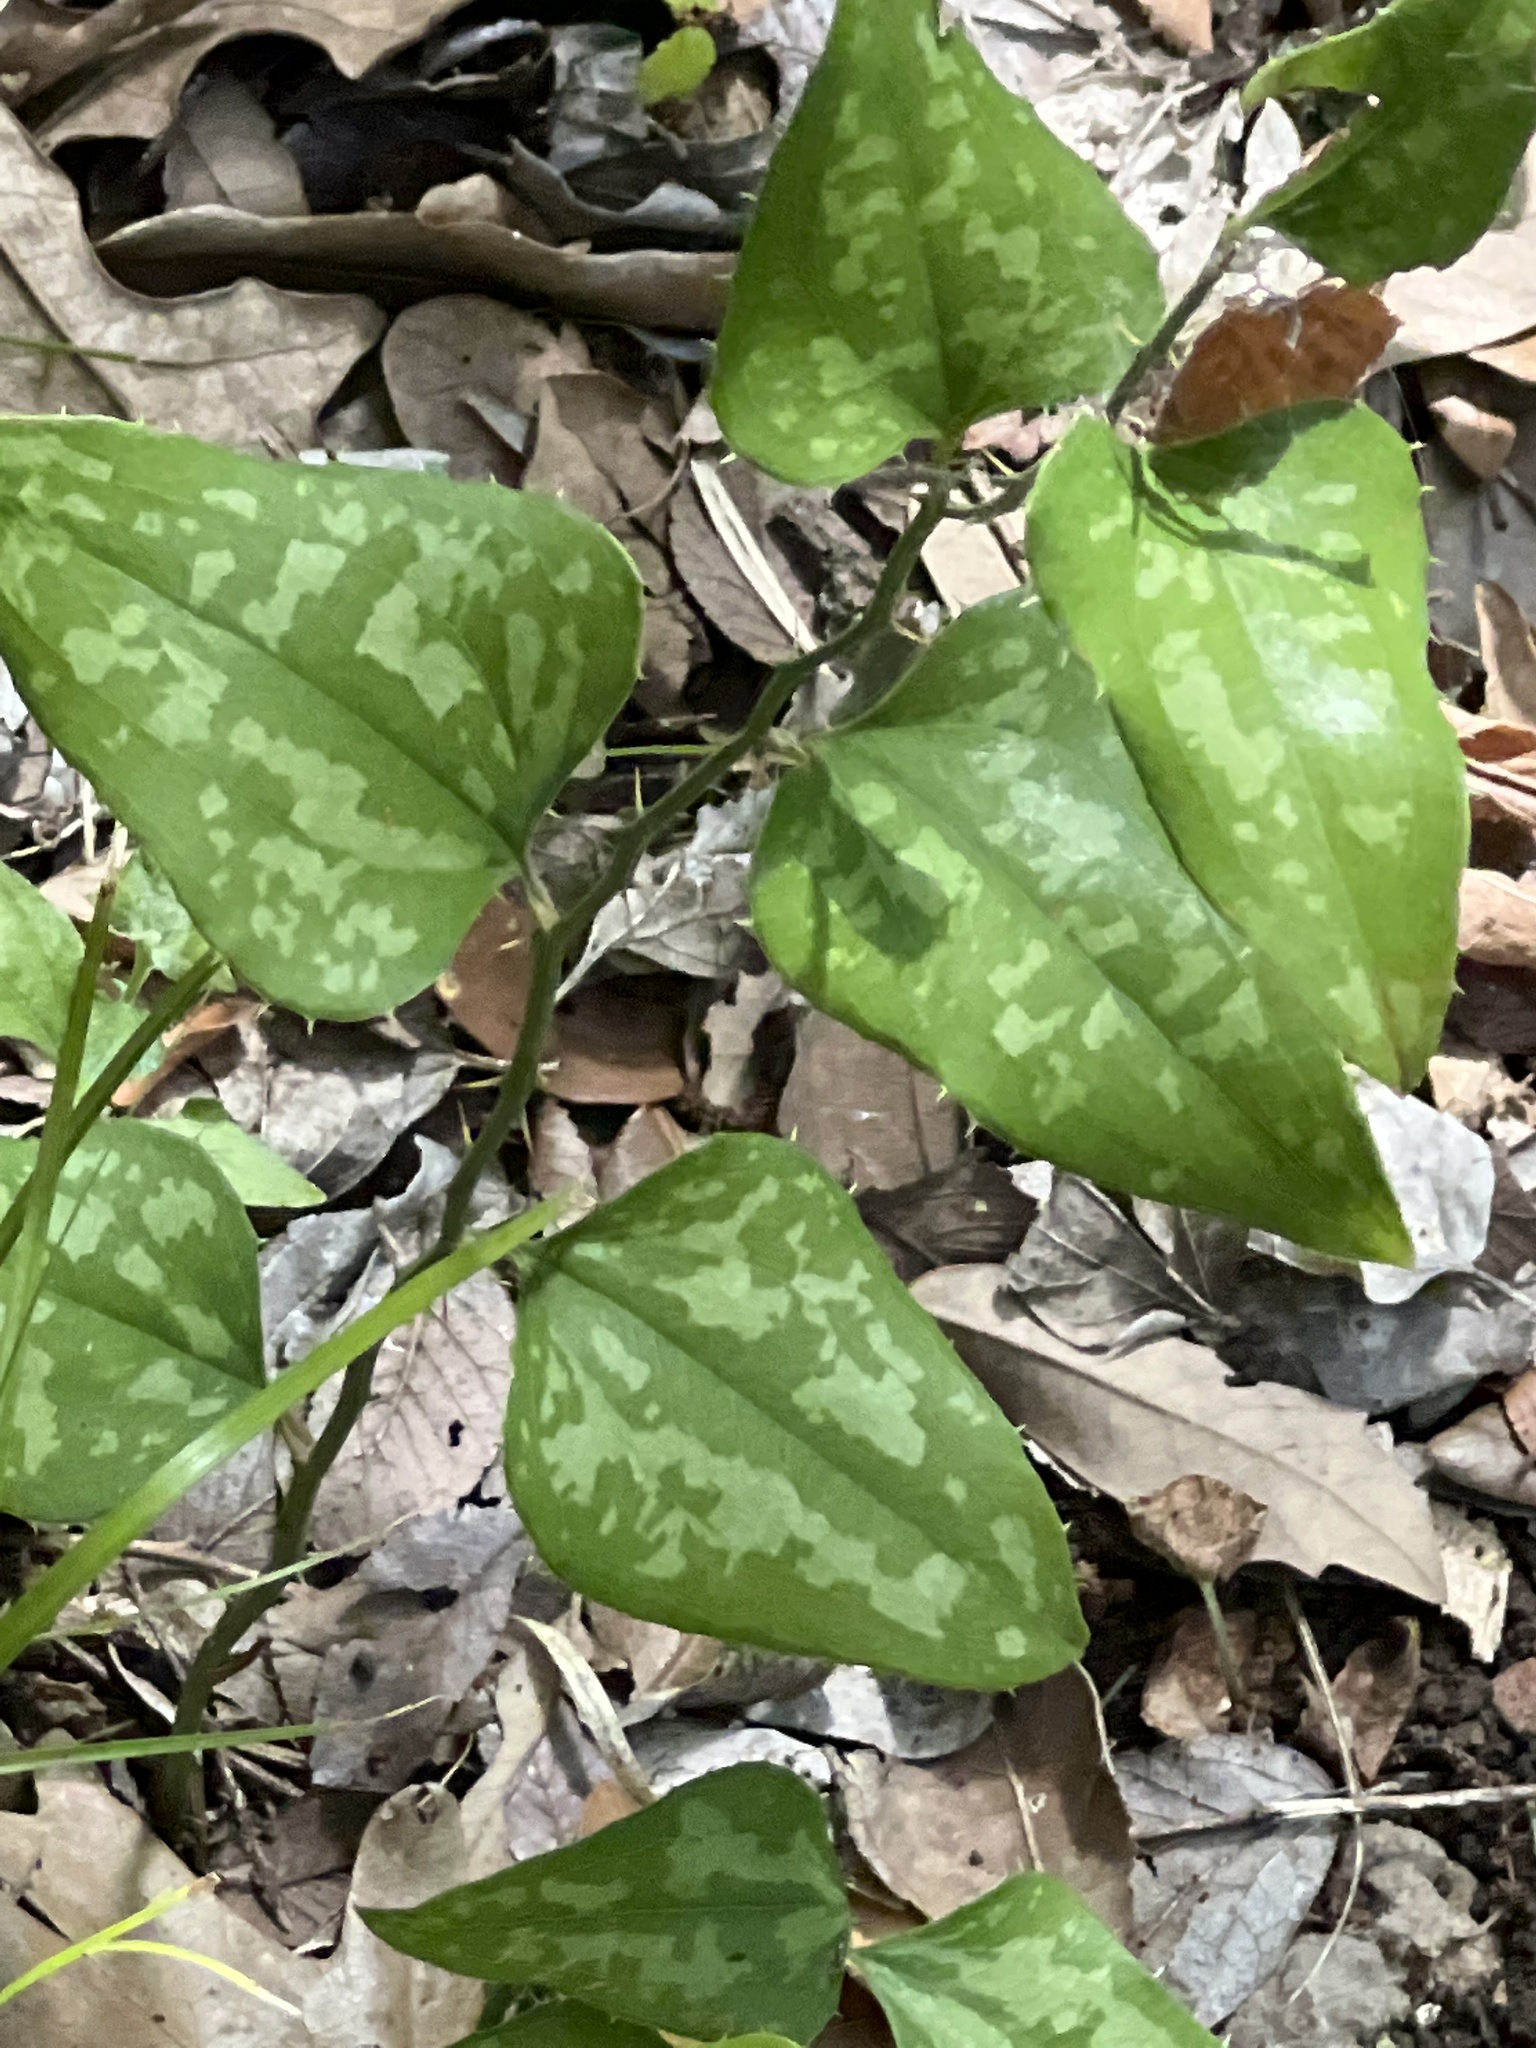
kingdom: Plantae
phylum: Tracheophyta
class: Liliopsida
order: Liliales
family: Smilacaceae
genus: Smilax
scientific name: Smilax bona-nox
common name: Catbrier
